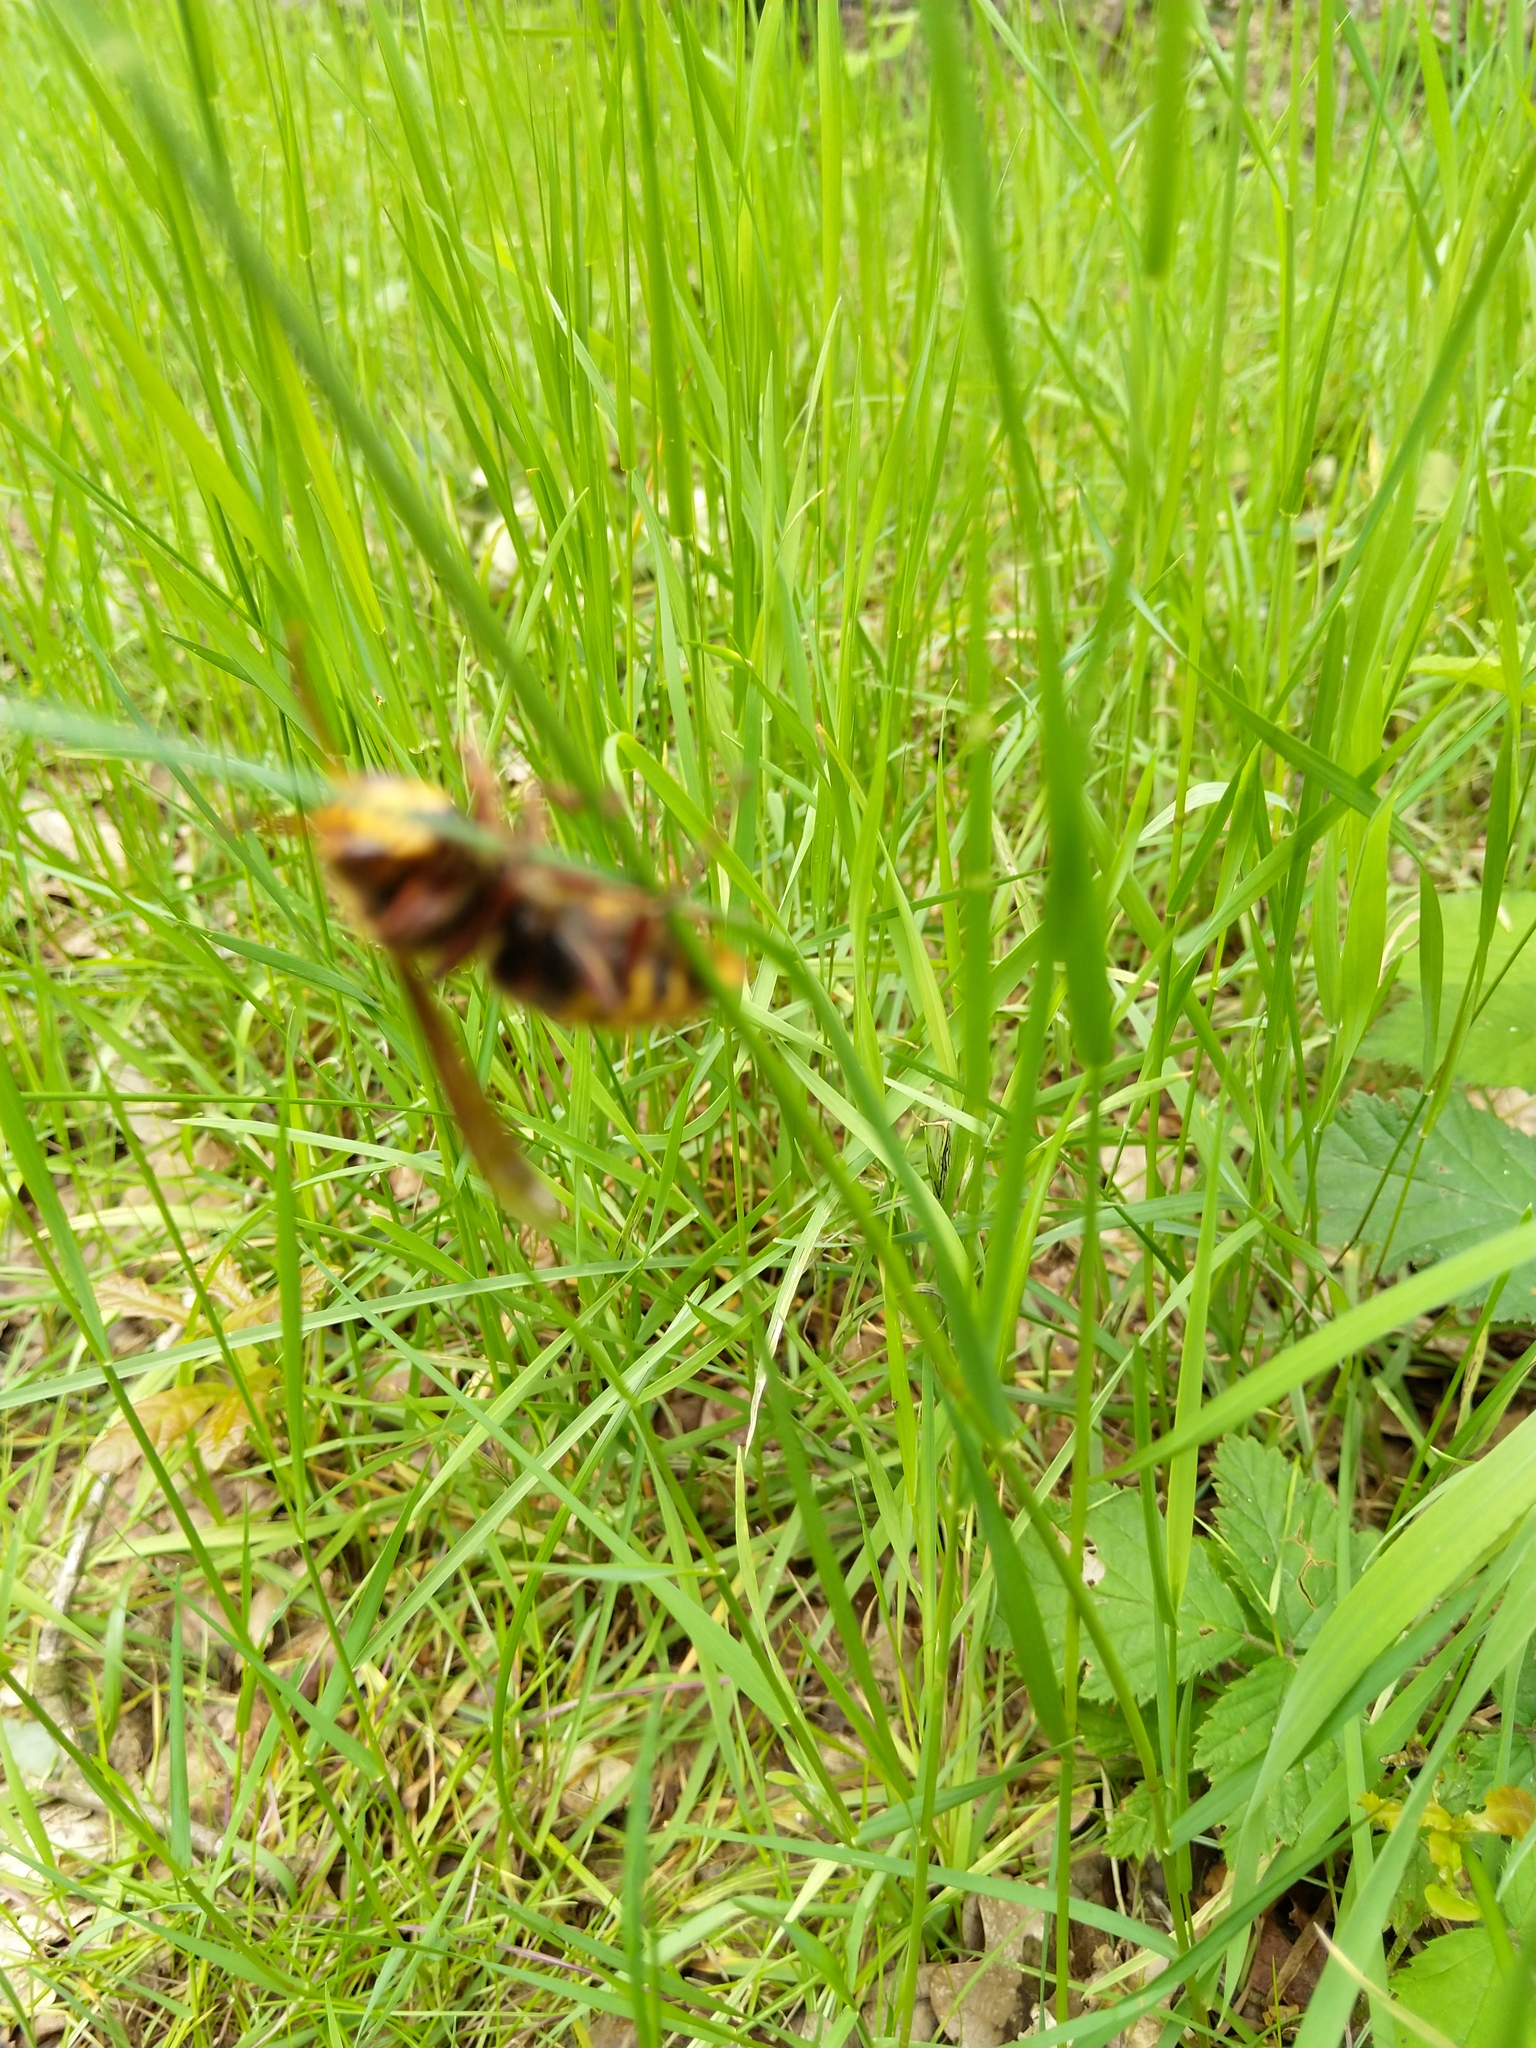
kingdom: Animalia
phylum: Arthropoda
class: Insecta
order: Hymenoptera
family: Vespidae
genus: Vespa
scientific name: Vespa crabro
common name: Hornet
